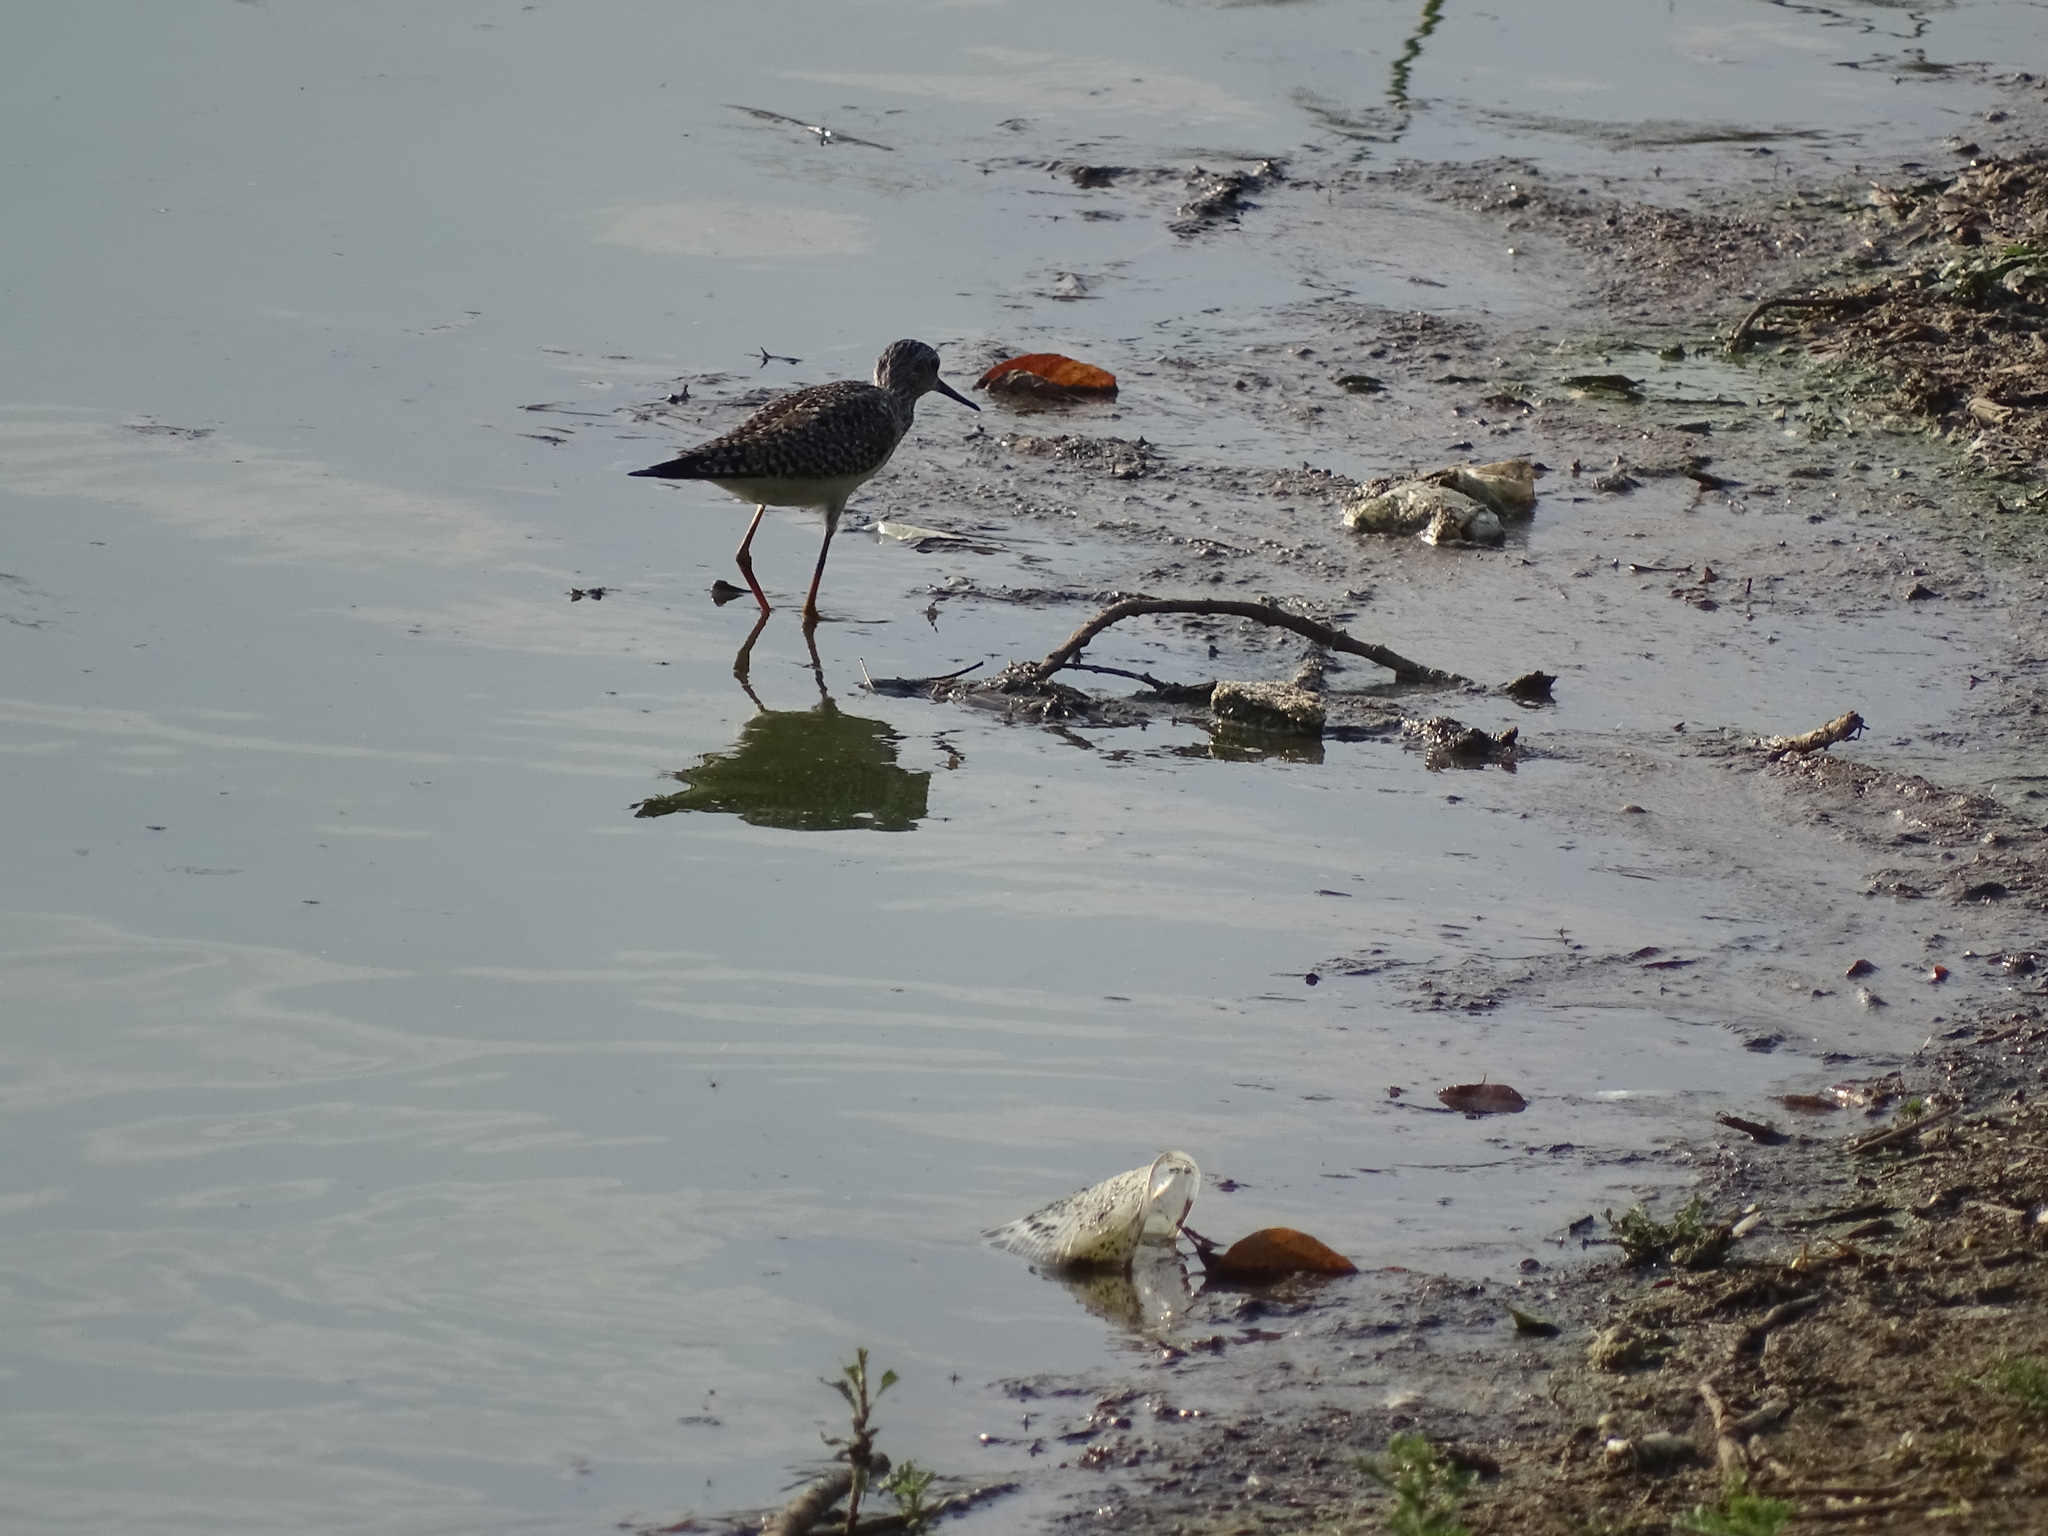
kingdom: Animalia
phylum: Chordata
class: Aves
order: Charadriiformes
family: Scolopacidae
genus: Tringa
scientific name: Tringa flavipes
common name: Lesser yellowlegs
